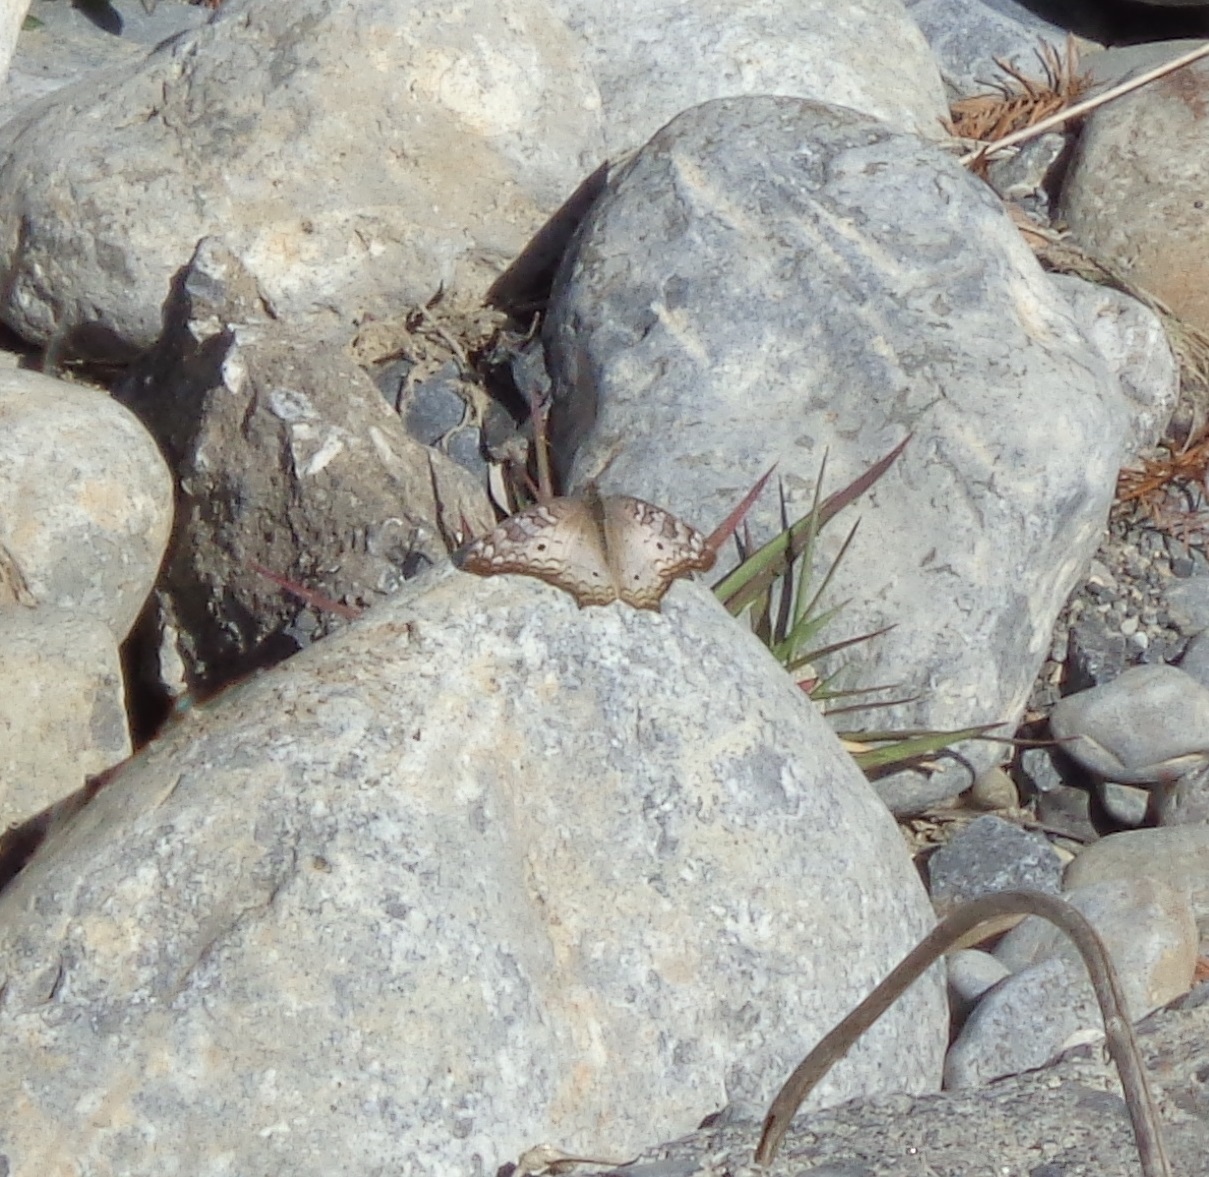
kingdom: Animalia
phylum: Arthropoda
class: Insecta
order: Lepidoptera
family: Nymphalidae
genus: Anartia
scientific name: Anartia jatrophae
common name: White peacock
